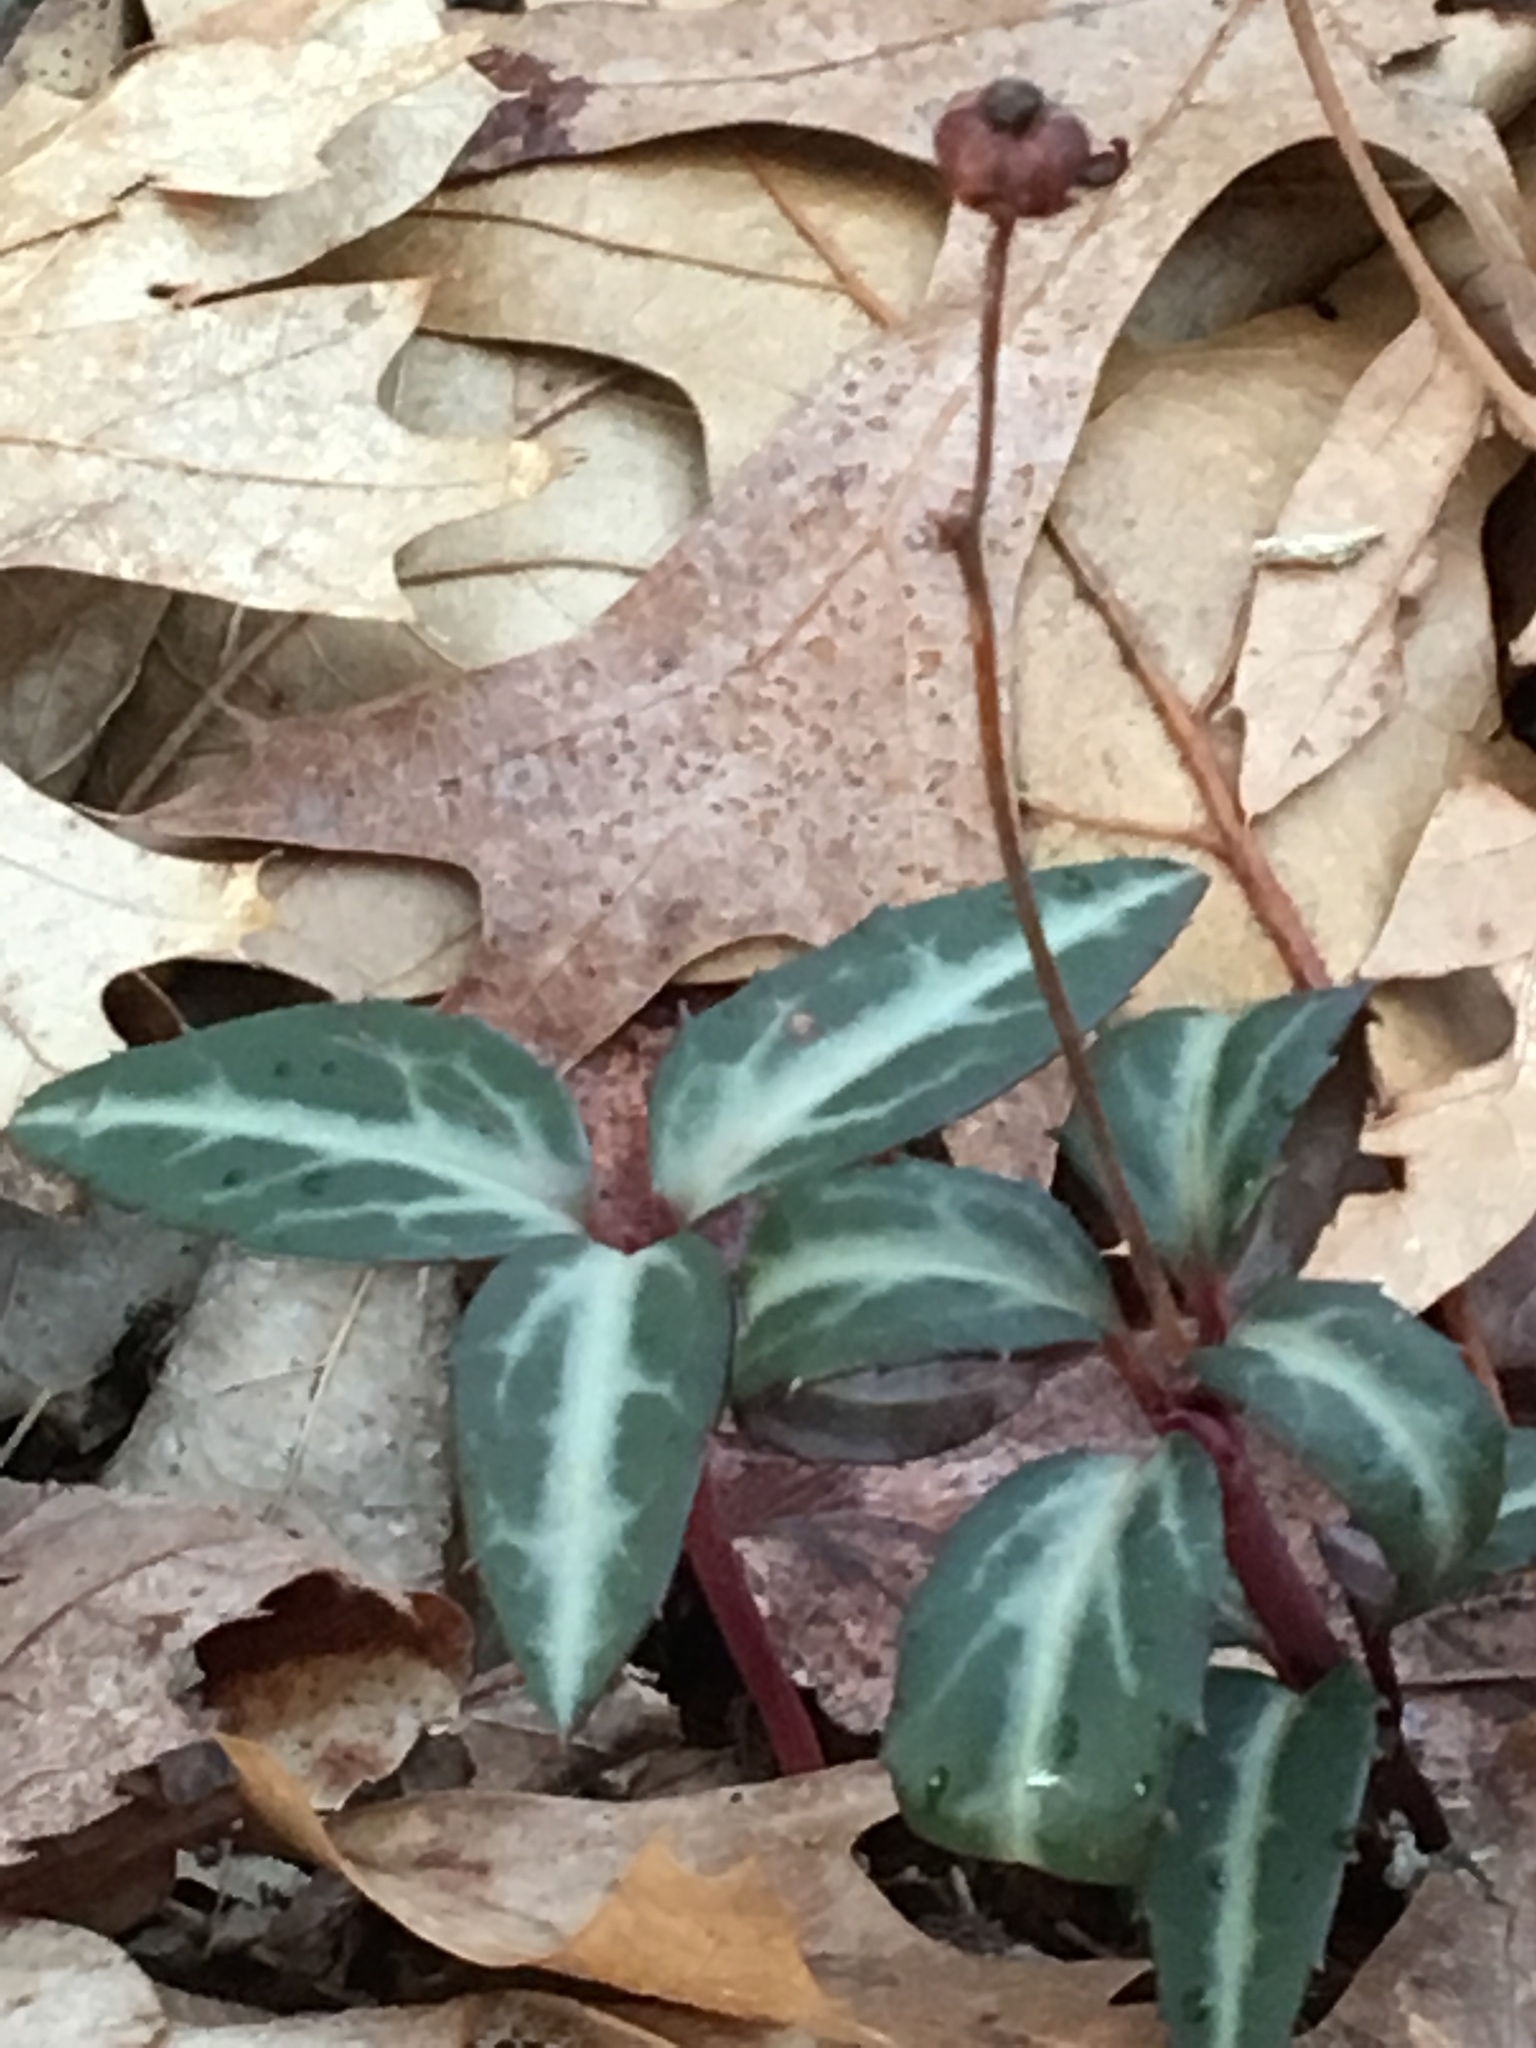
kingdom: Plantae
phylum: Tracheophyta
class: Magnoliopsida
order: Ericales
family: Ericaceae
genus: Chimaphila
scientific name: Chimaphila maculata
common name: Spotted pipsissewa
